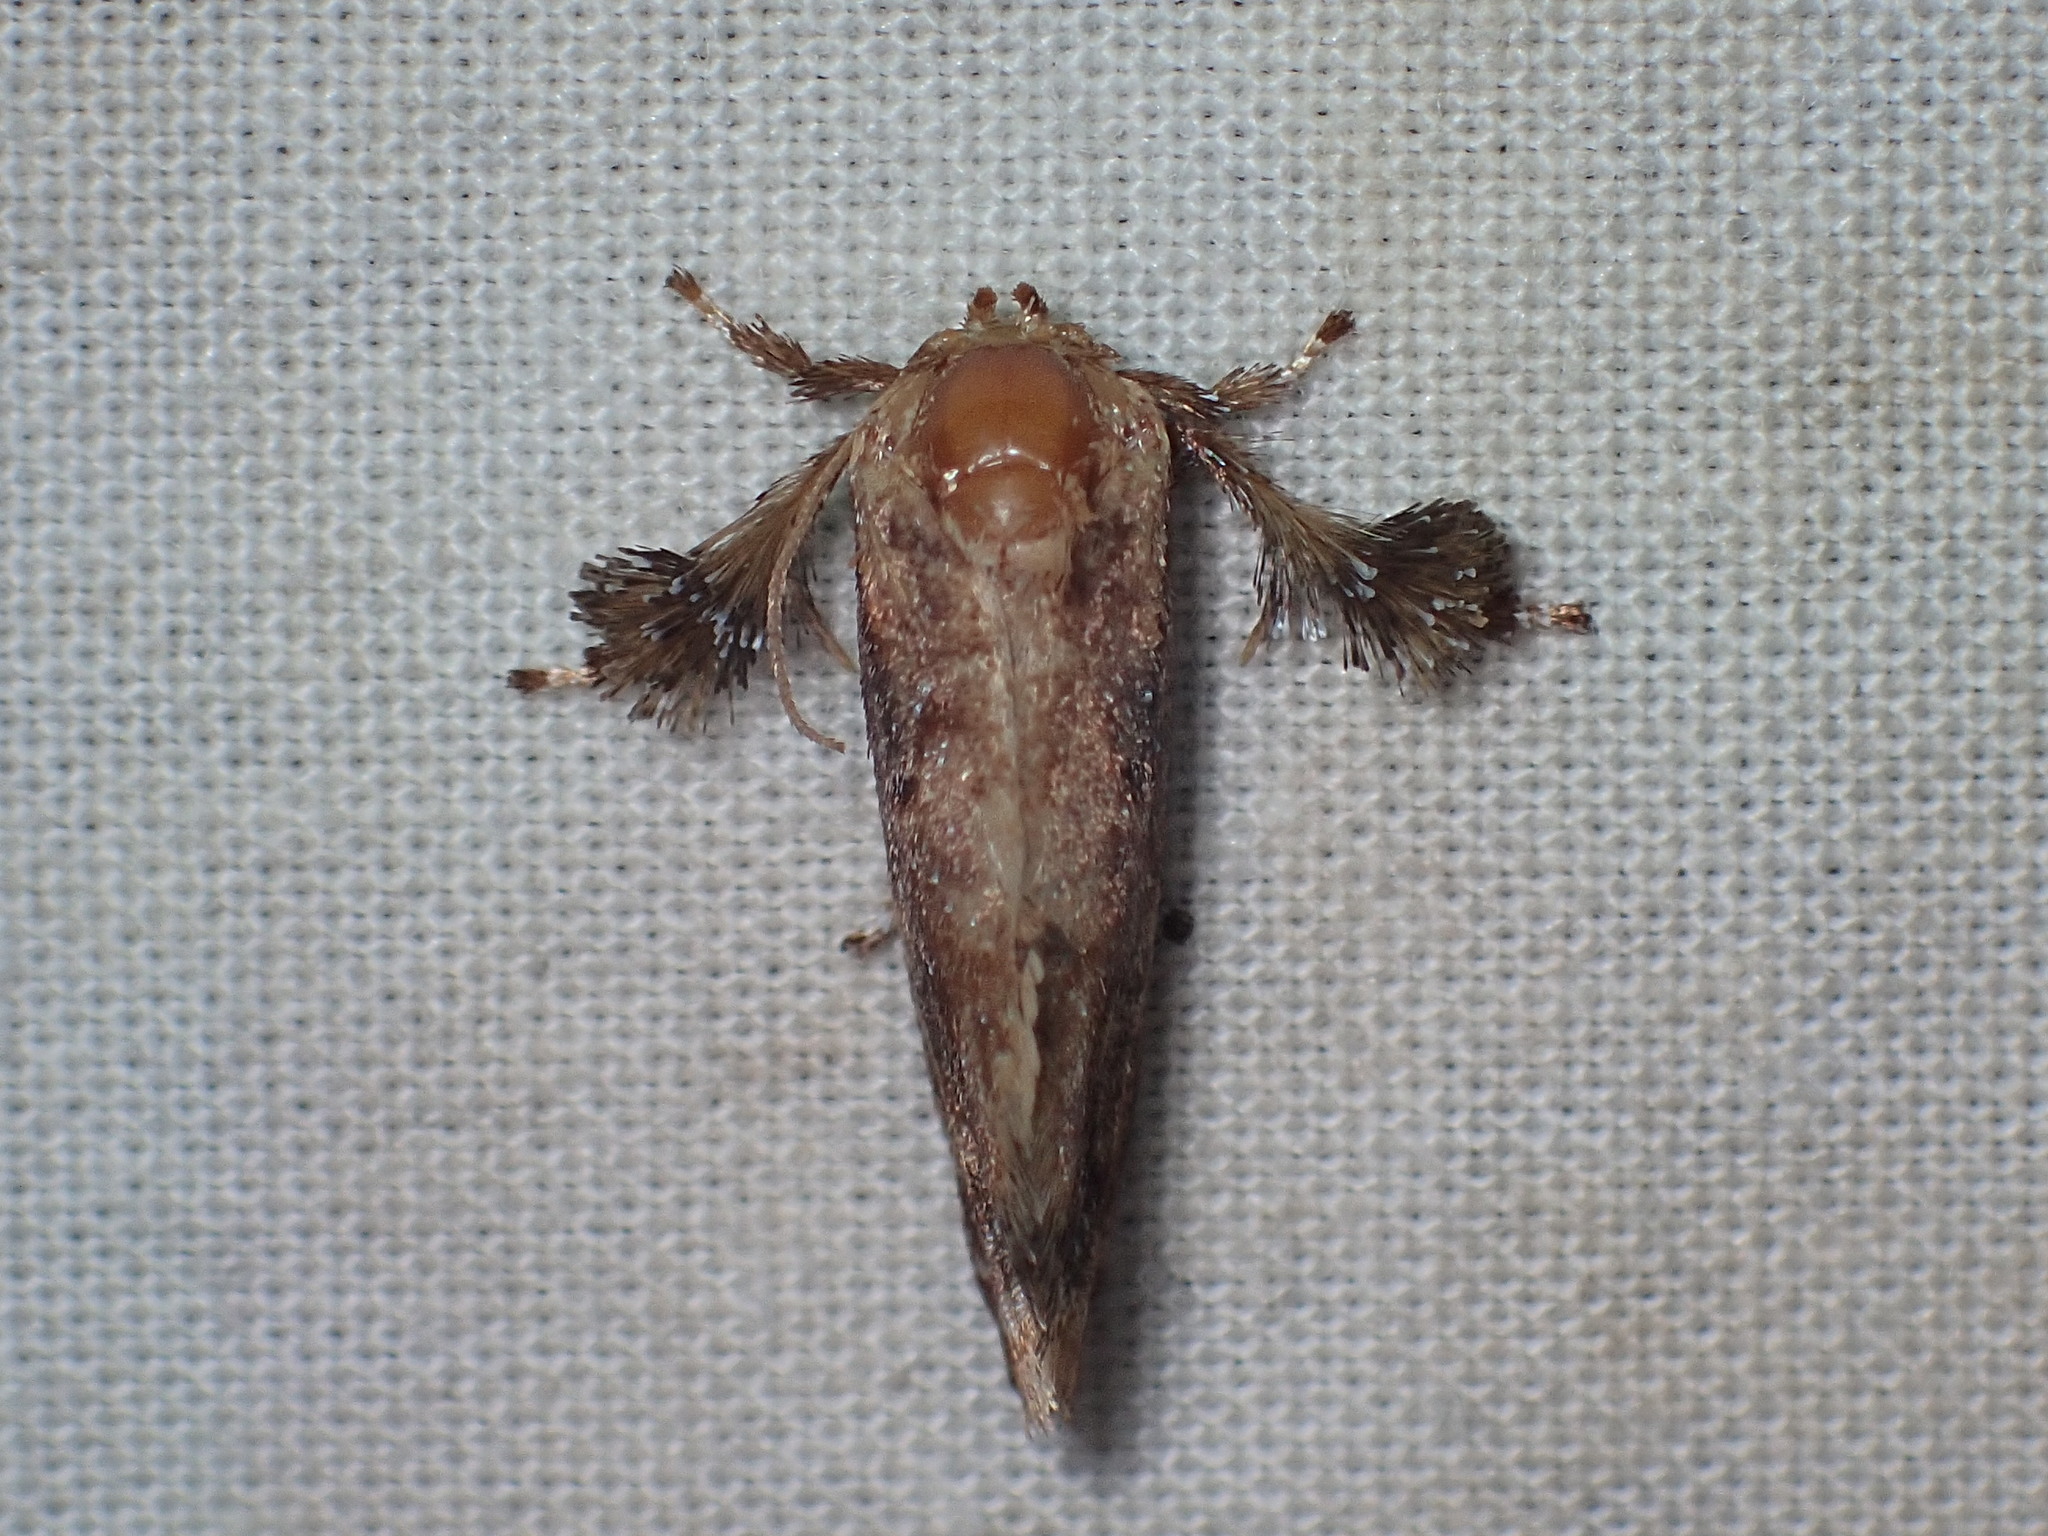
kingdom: Animalia
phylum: Arthropoda
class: Insecta
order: Lepidoptera
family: Limacodidae
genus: Isochaetes
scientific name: Isochaetes beutenmuelleri
